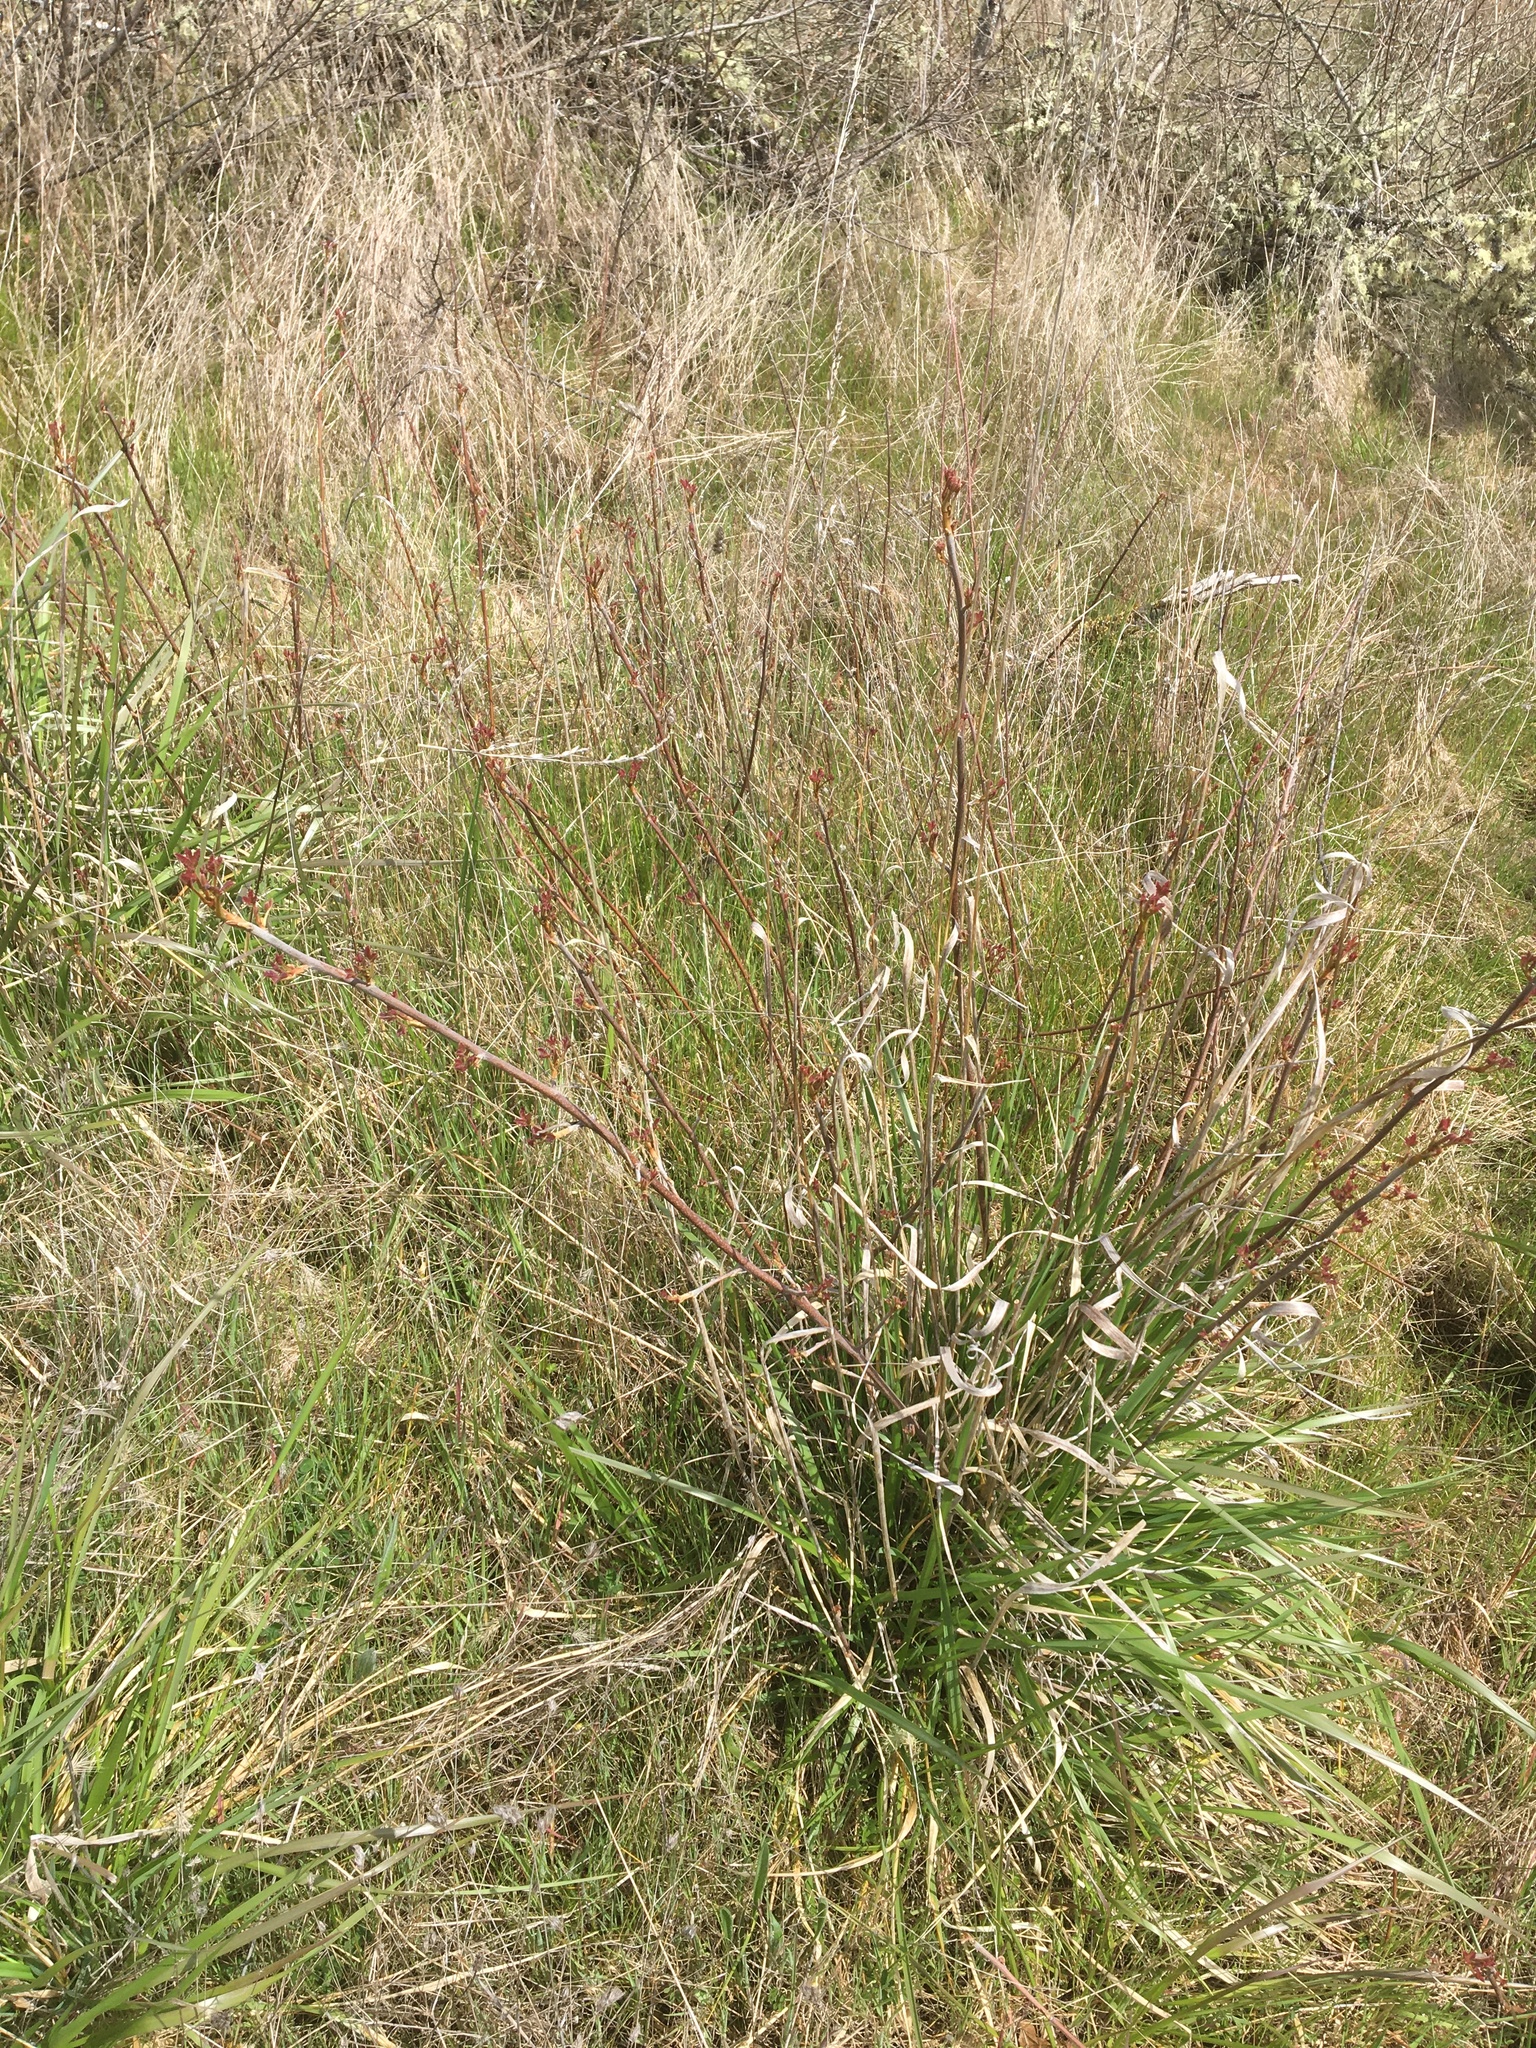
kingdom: Plantae
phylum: Tracheophyta
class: Magnoliopsida
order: Sapindales
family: Anacardiaceae
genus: Toxicodendron
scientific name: Toxicodendron diversilobum
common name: Pacific poison-oak
